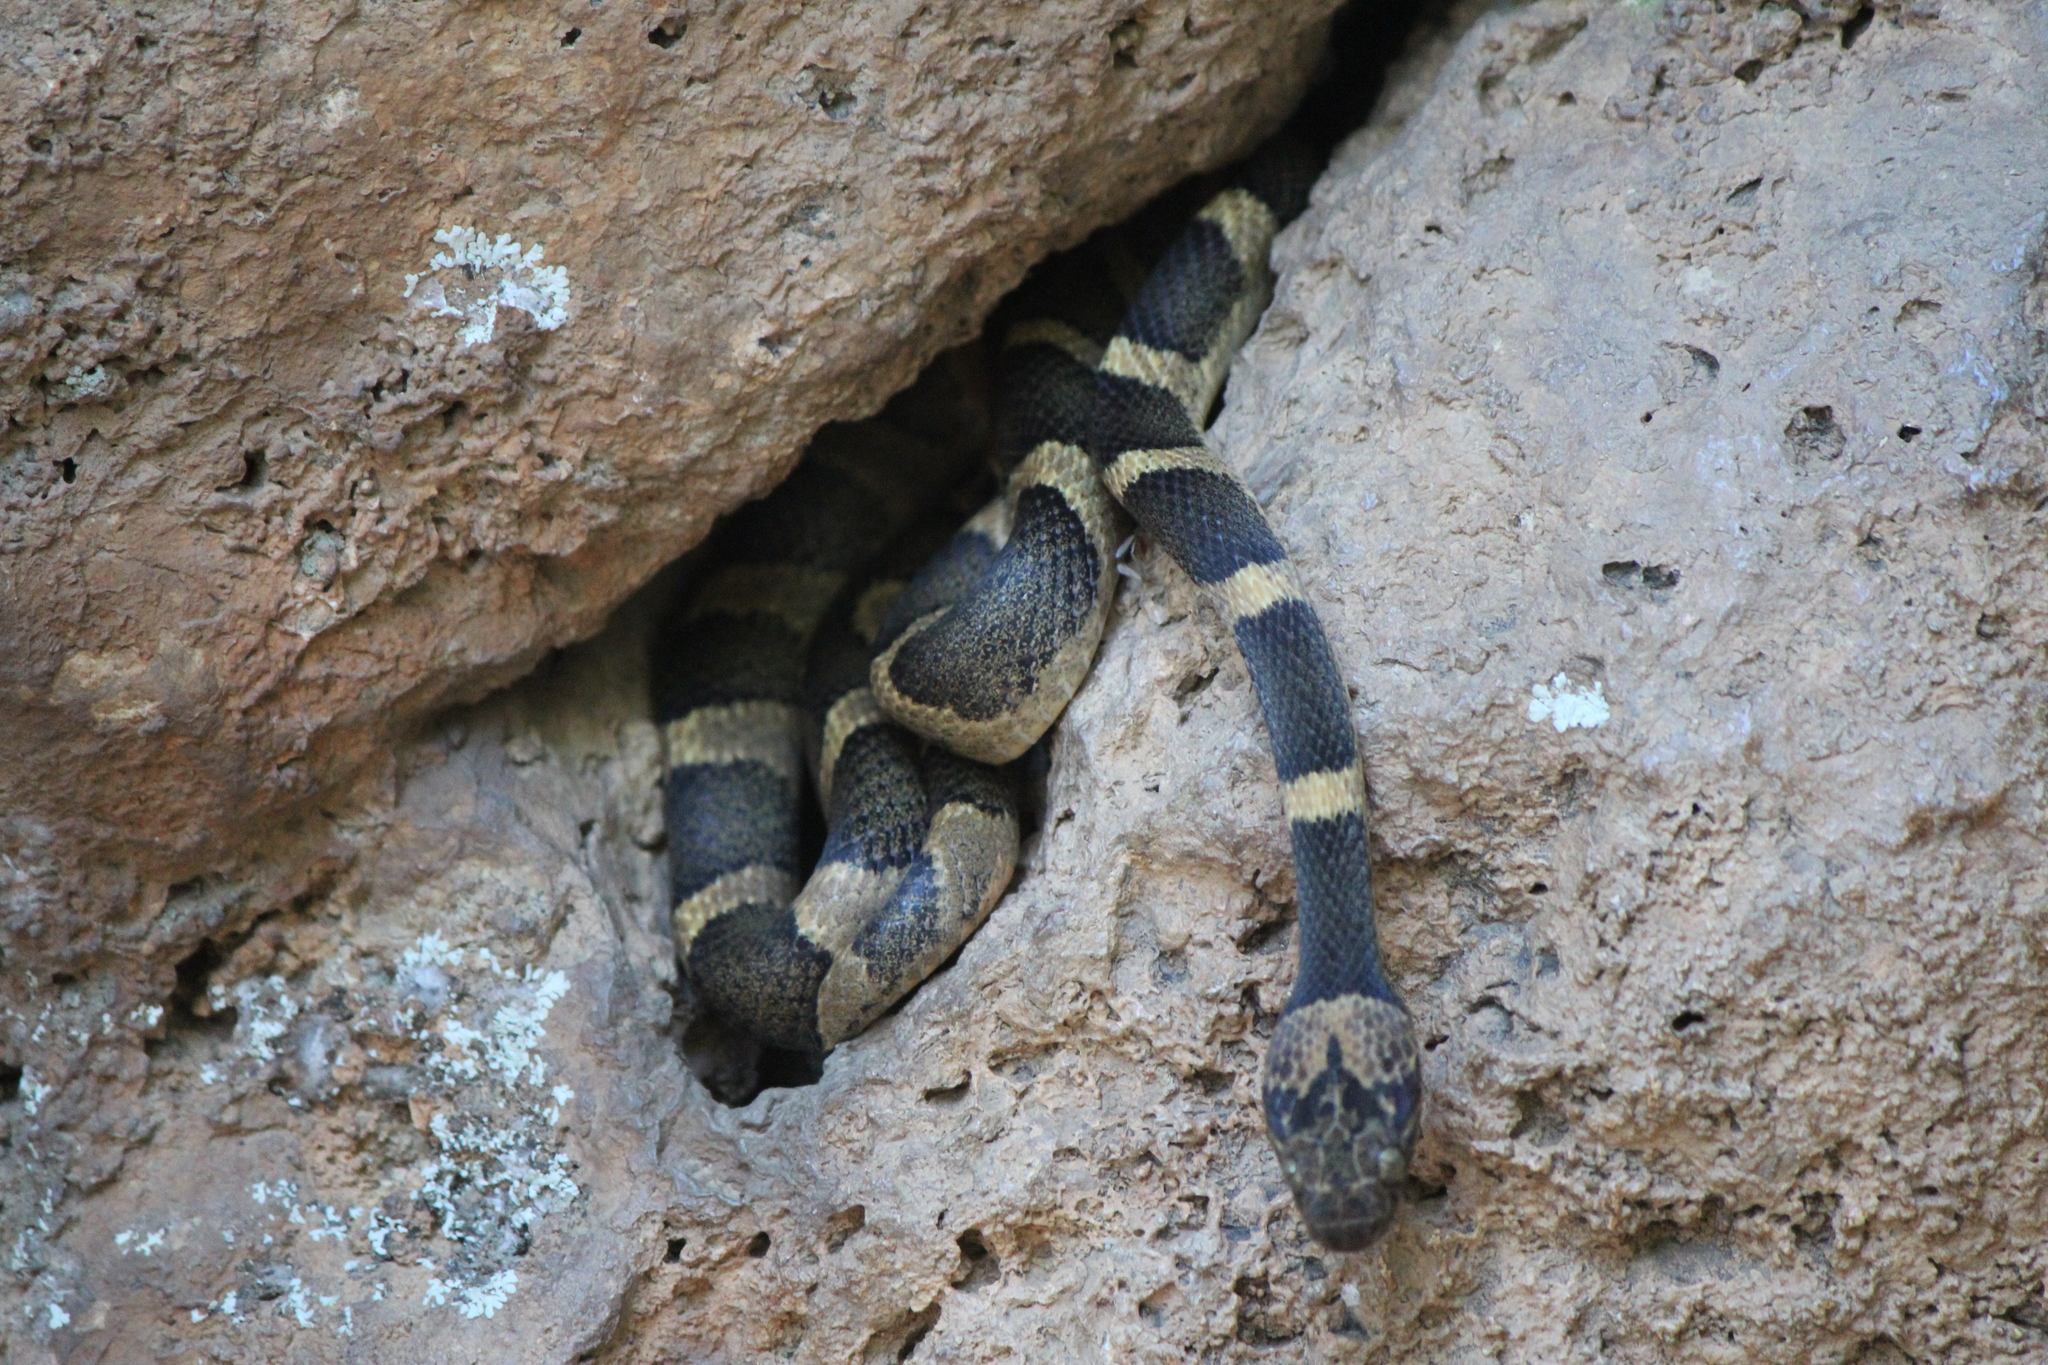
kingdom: Animalia
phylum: Chordata
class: Squamata
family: Colubridae
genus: Leptodeira
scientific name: Leptodeira maculata
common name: Southwestern cat-eyed snake
